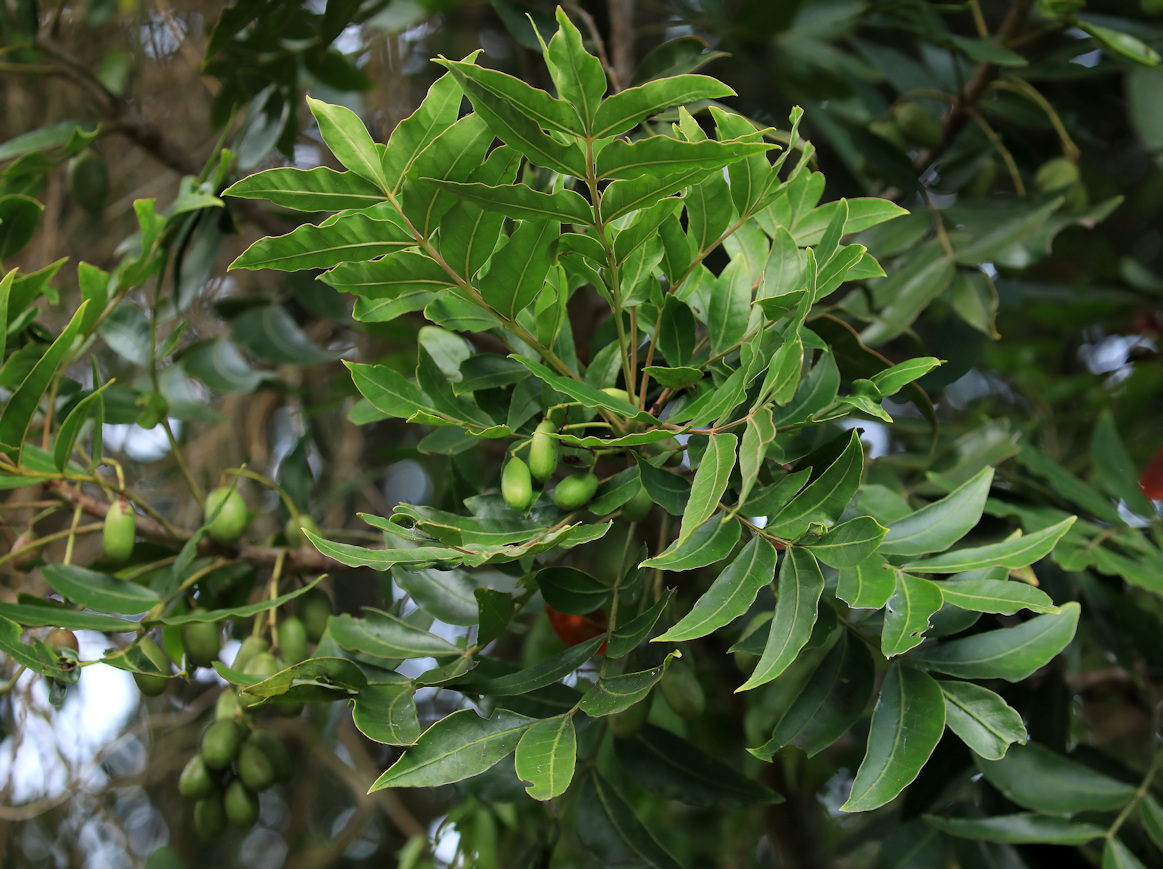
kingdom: Plantae
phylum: Tracheophyta
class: Magnoliopsida
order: Sapindales
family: Anacardiaceae
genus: Harpephyllum
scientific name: Harpephyllum caffrum
